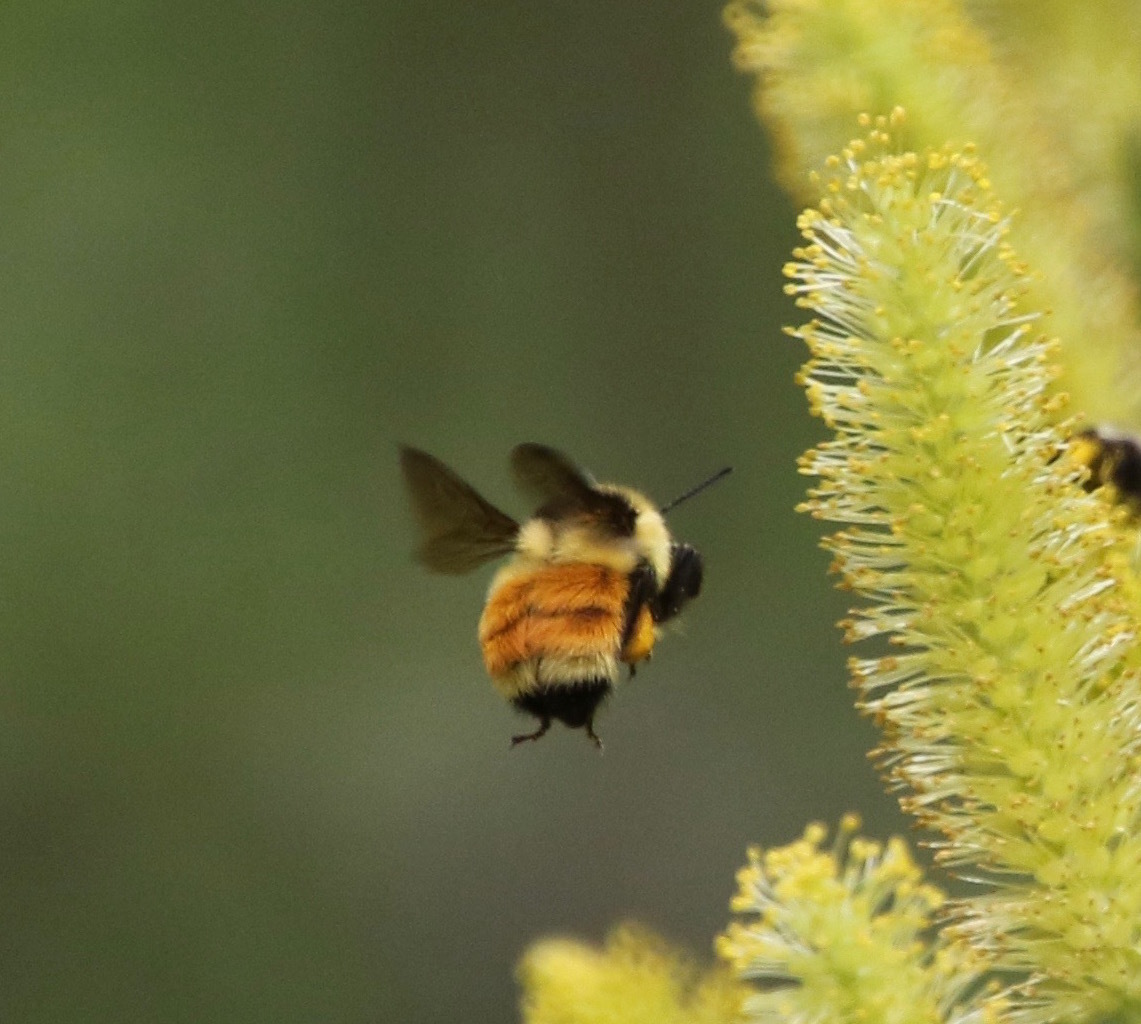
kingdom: Animalia
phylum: Arthropoda
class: Insecta
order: Hymenoptera
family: Apidae
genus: Bombus
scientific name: Bombus ternarius
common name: Tri-colored bumble bee
